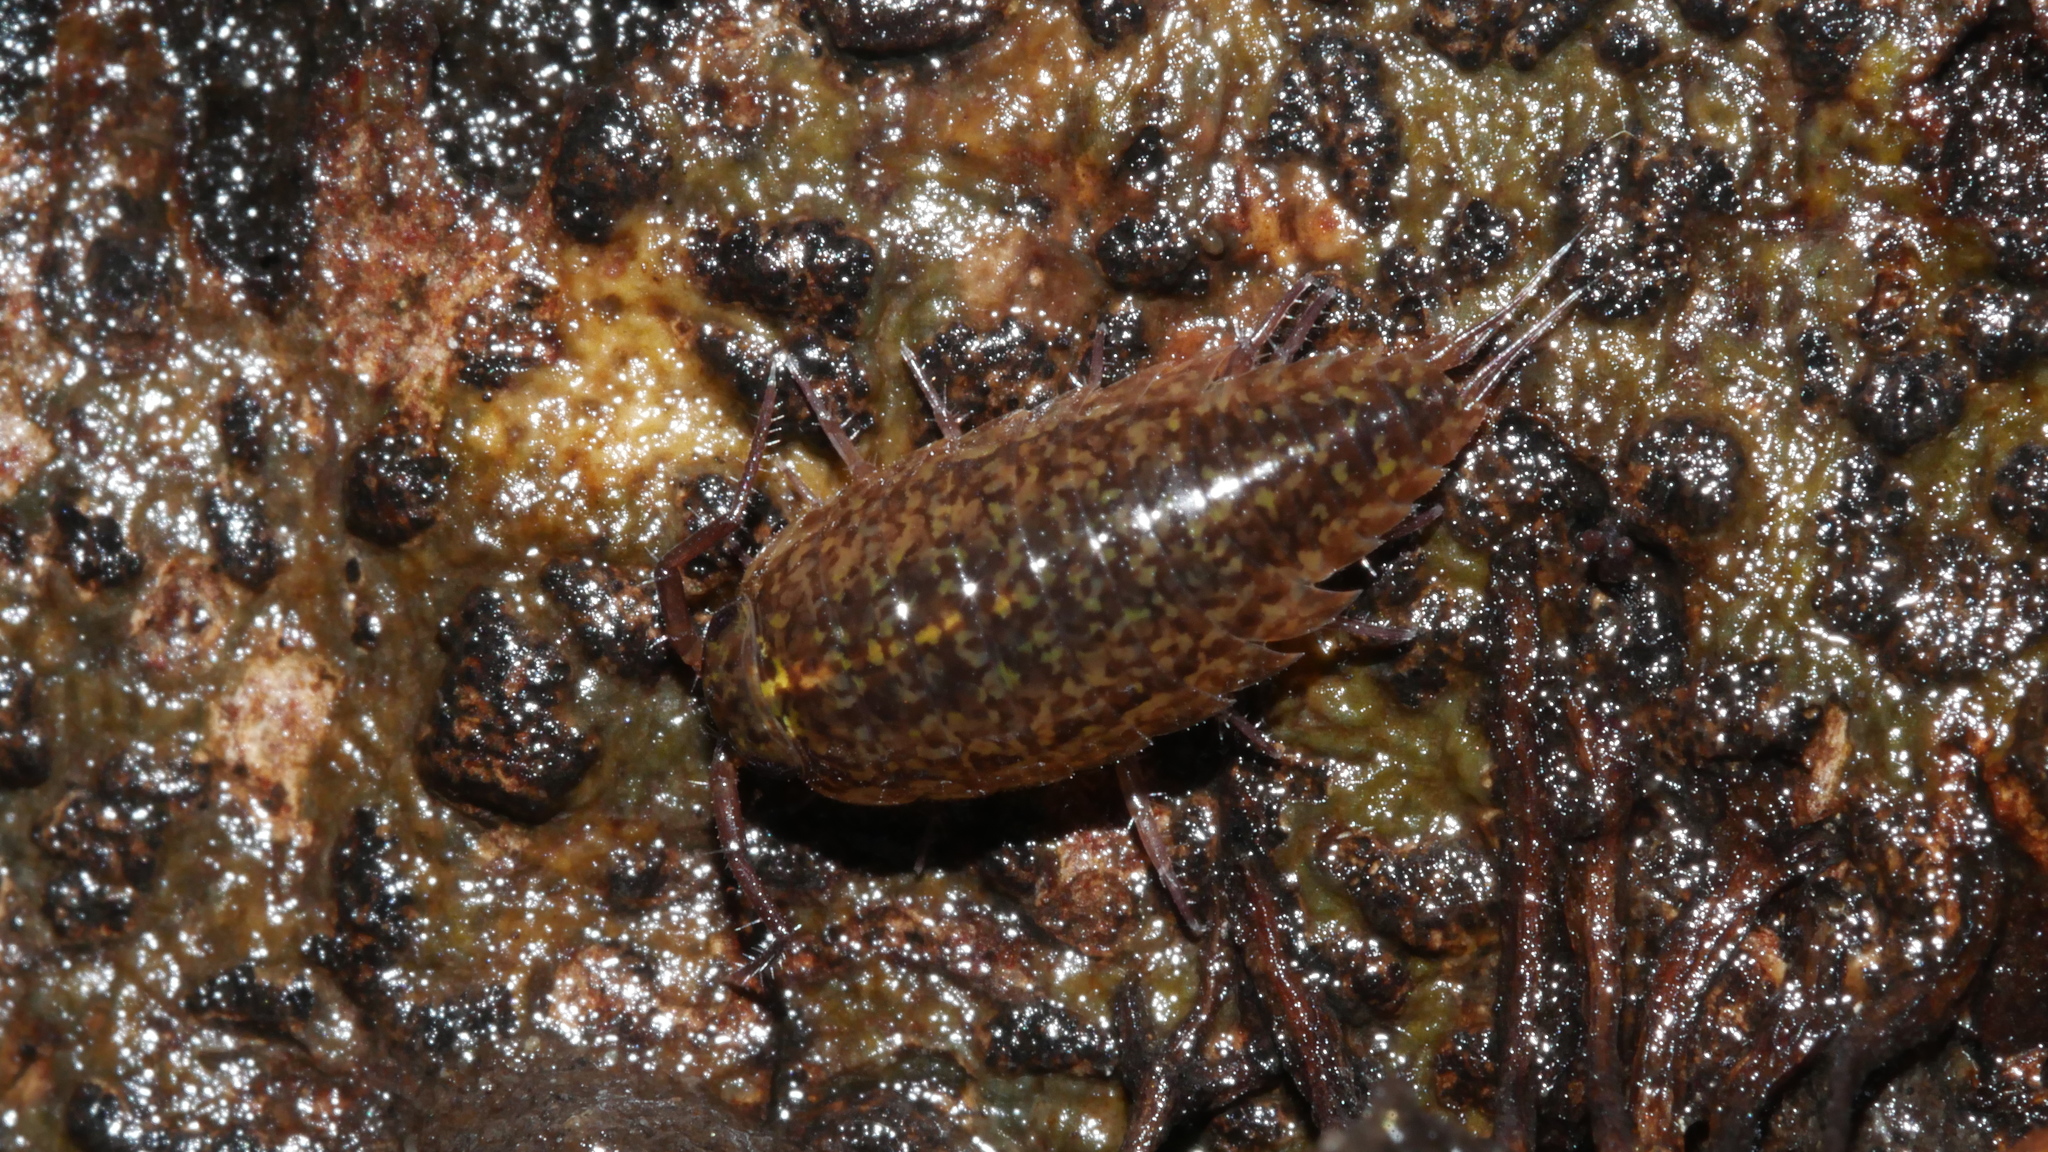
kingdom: Animalia
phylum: Arthropoda
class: Malacostraca
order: Isopoda
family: Ligiidae
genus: Ligidium
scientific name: Ligidium elrodii
